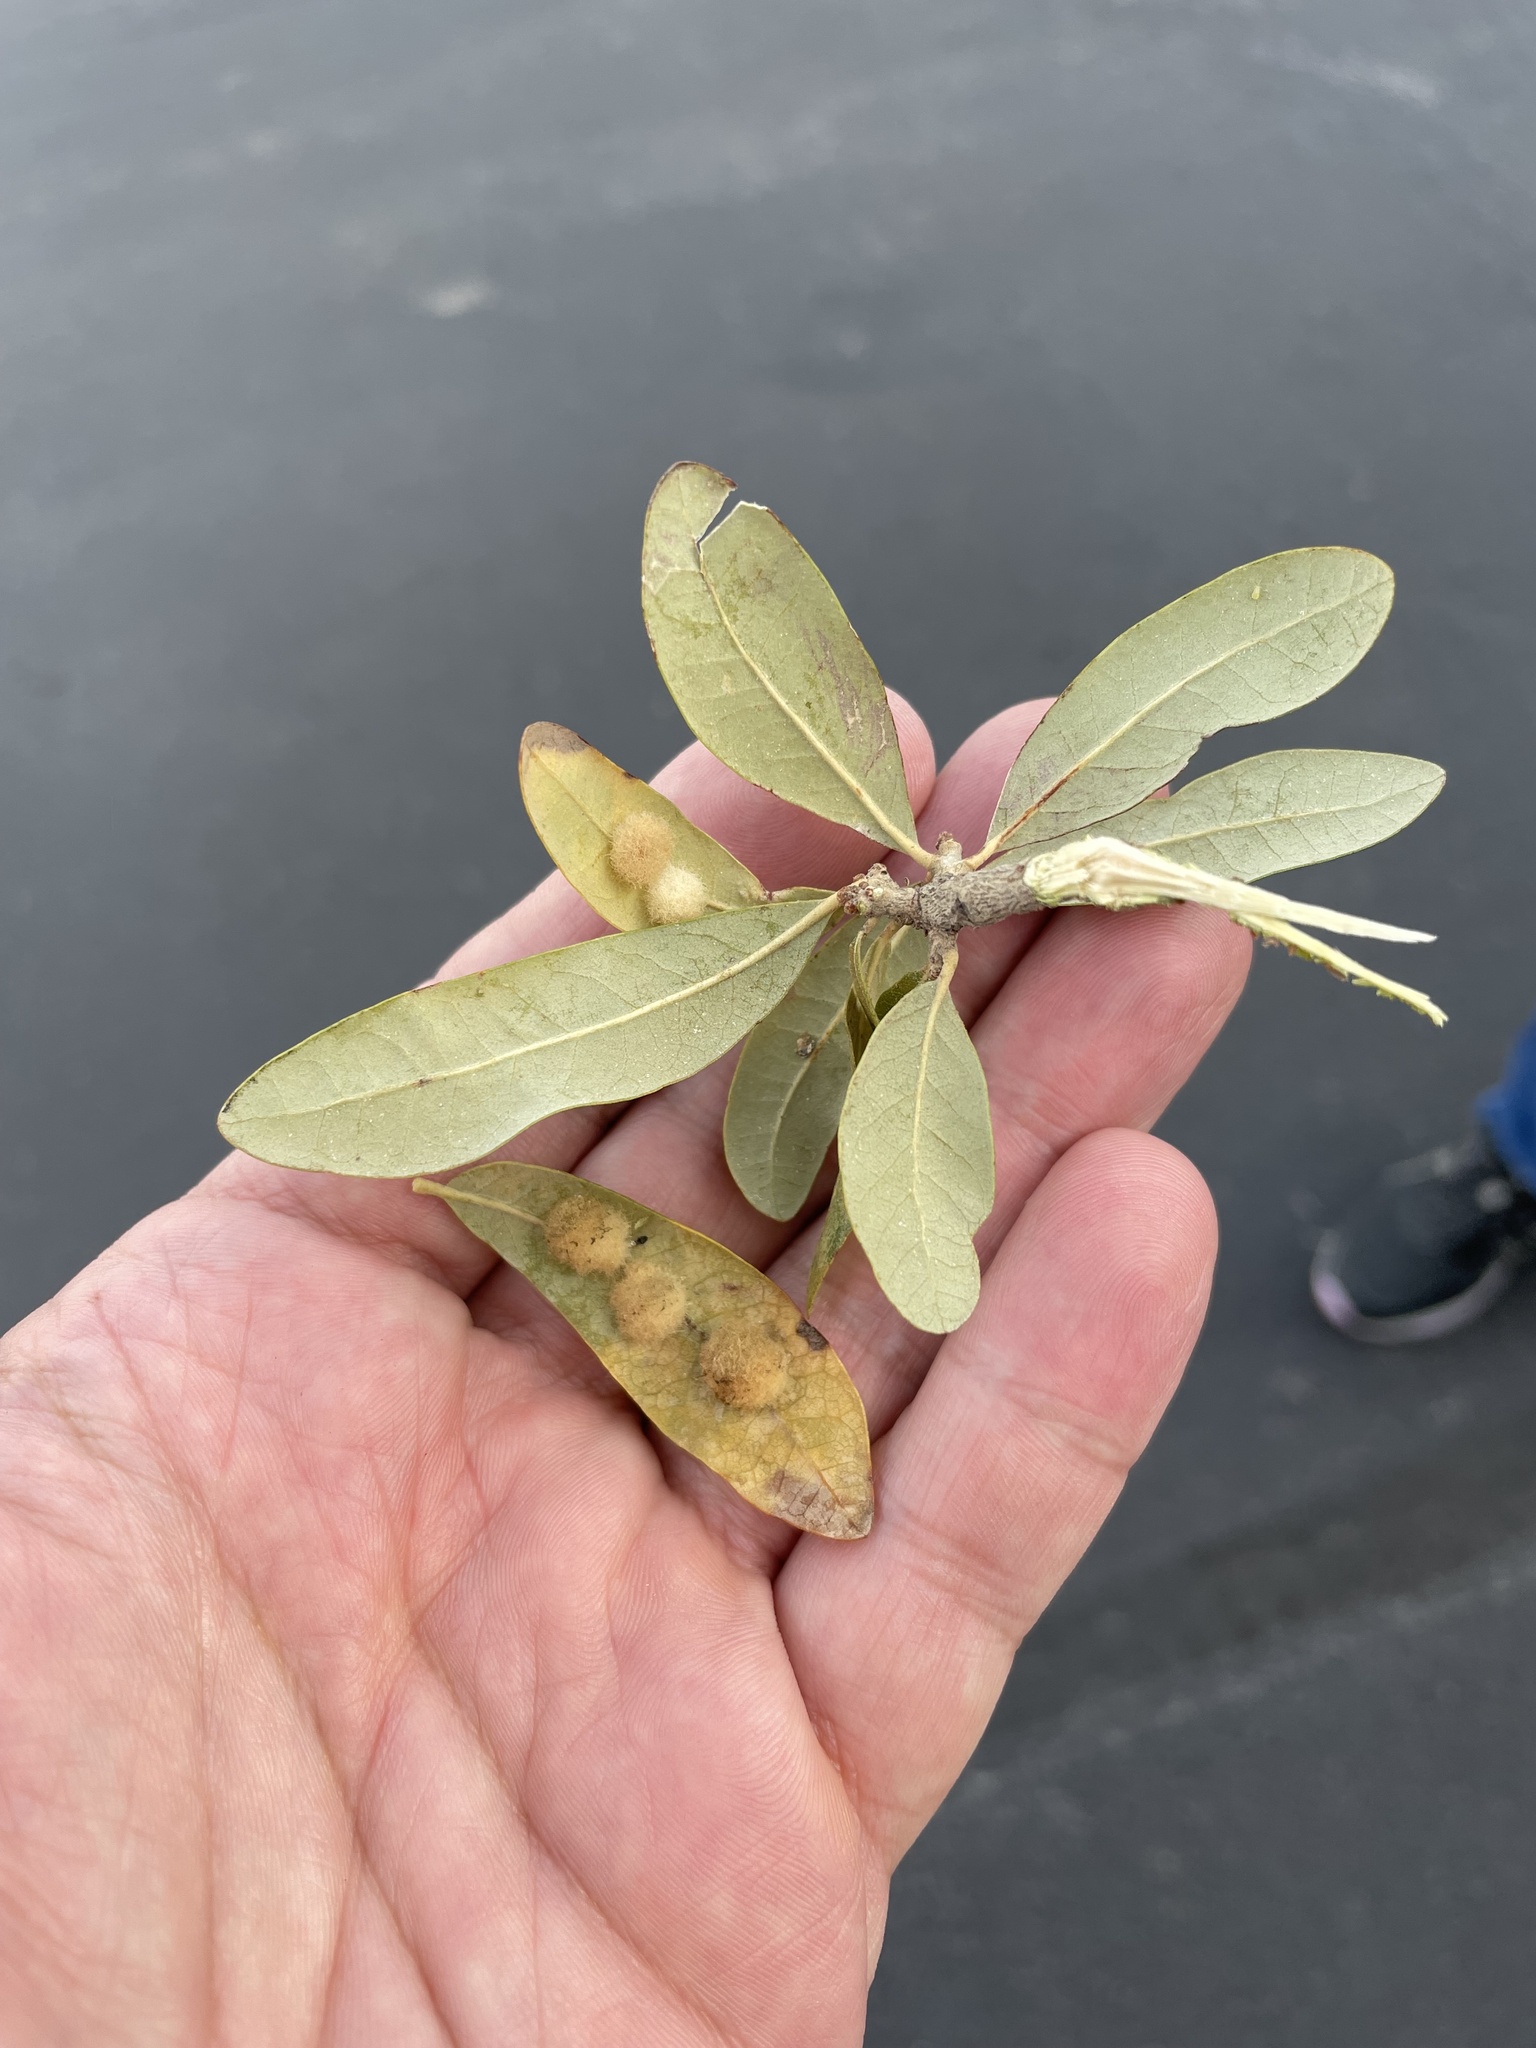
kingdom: Animalia
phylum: Arthropoda
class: Insecta
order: Hymenoptera
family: Cynipidae
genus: Andricus
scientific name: Andricus Druon quercuslanigerum
